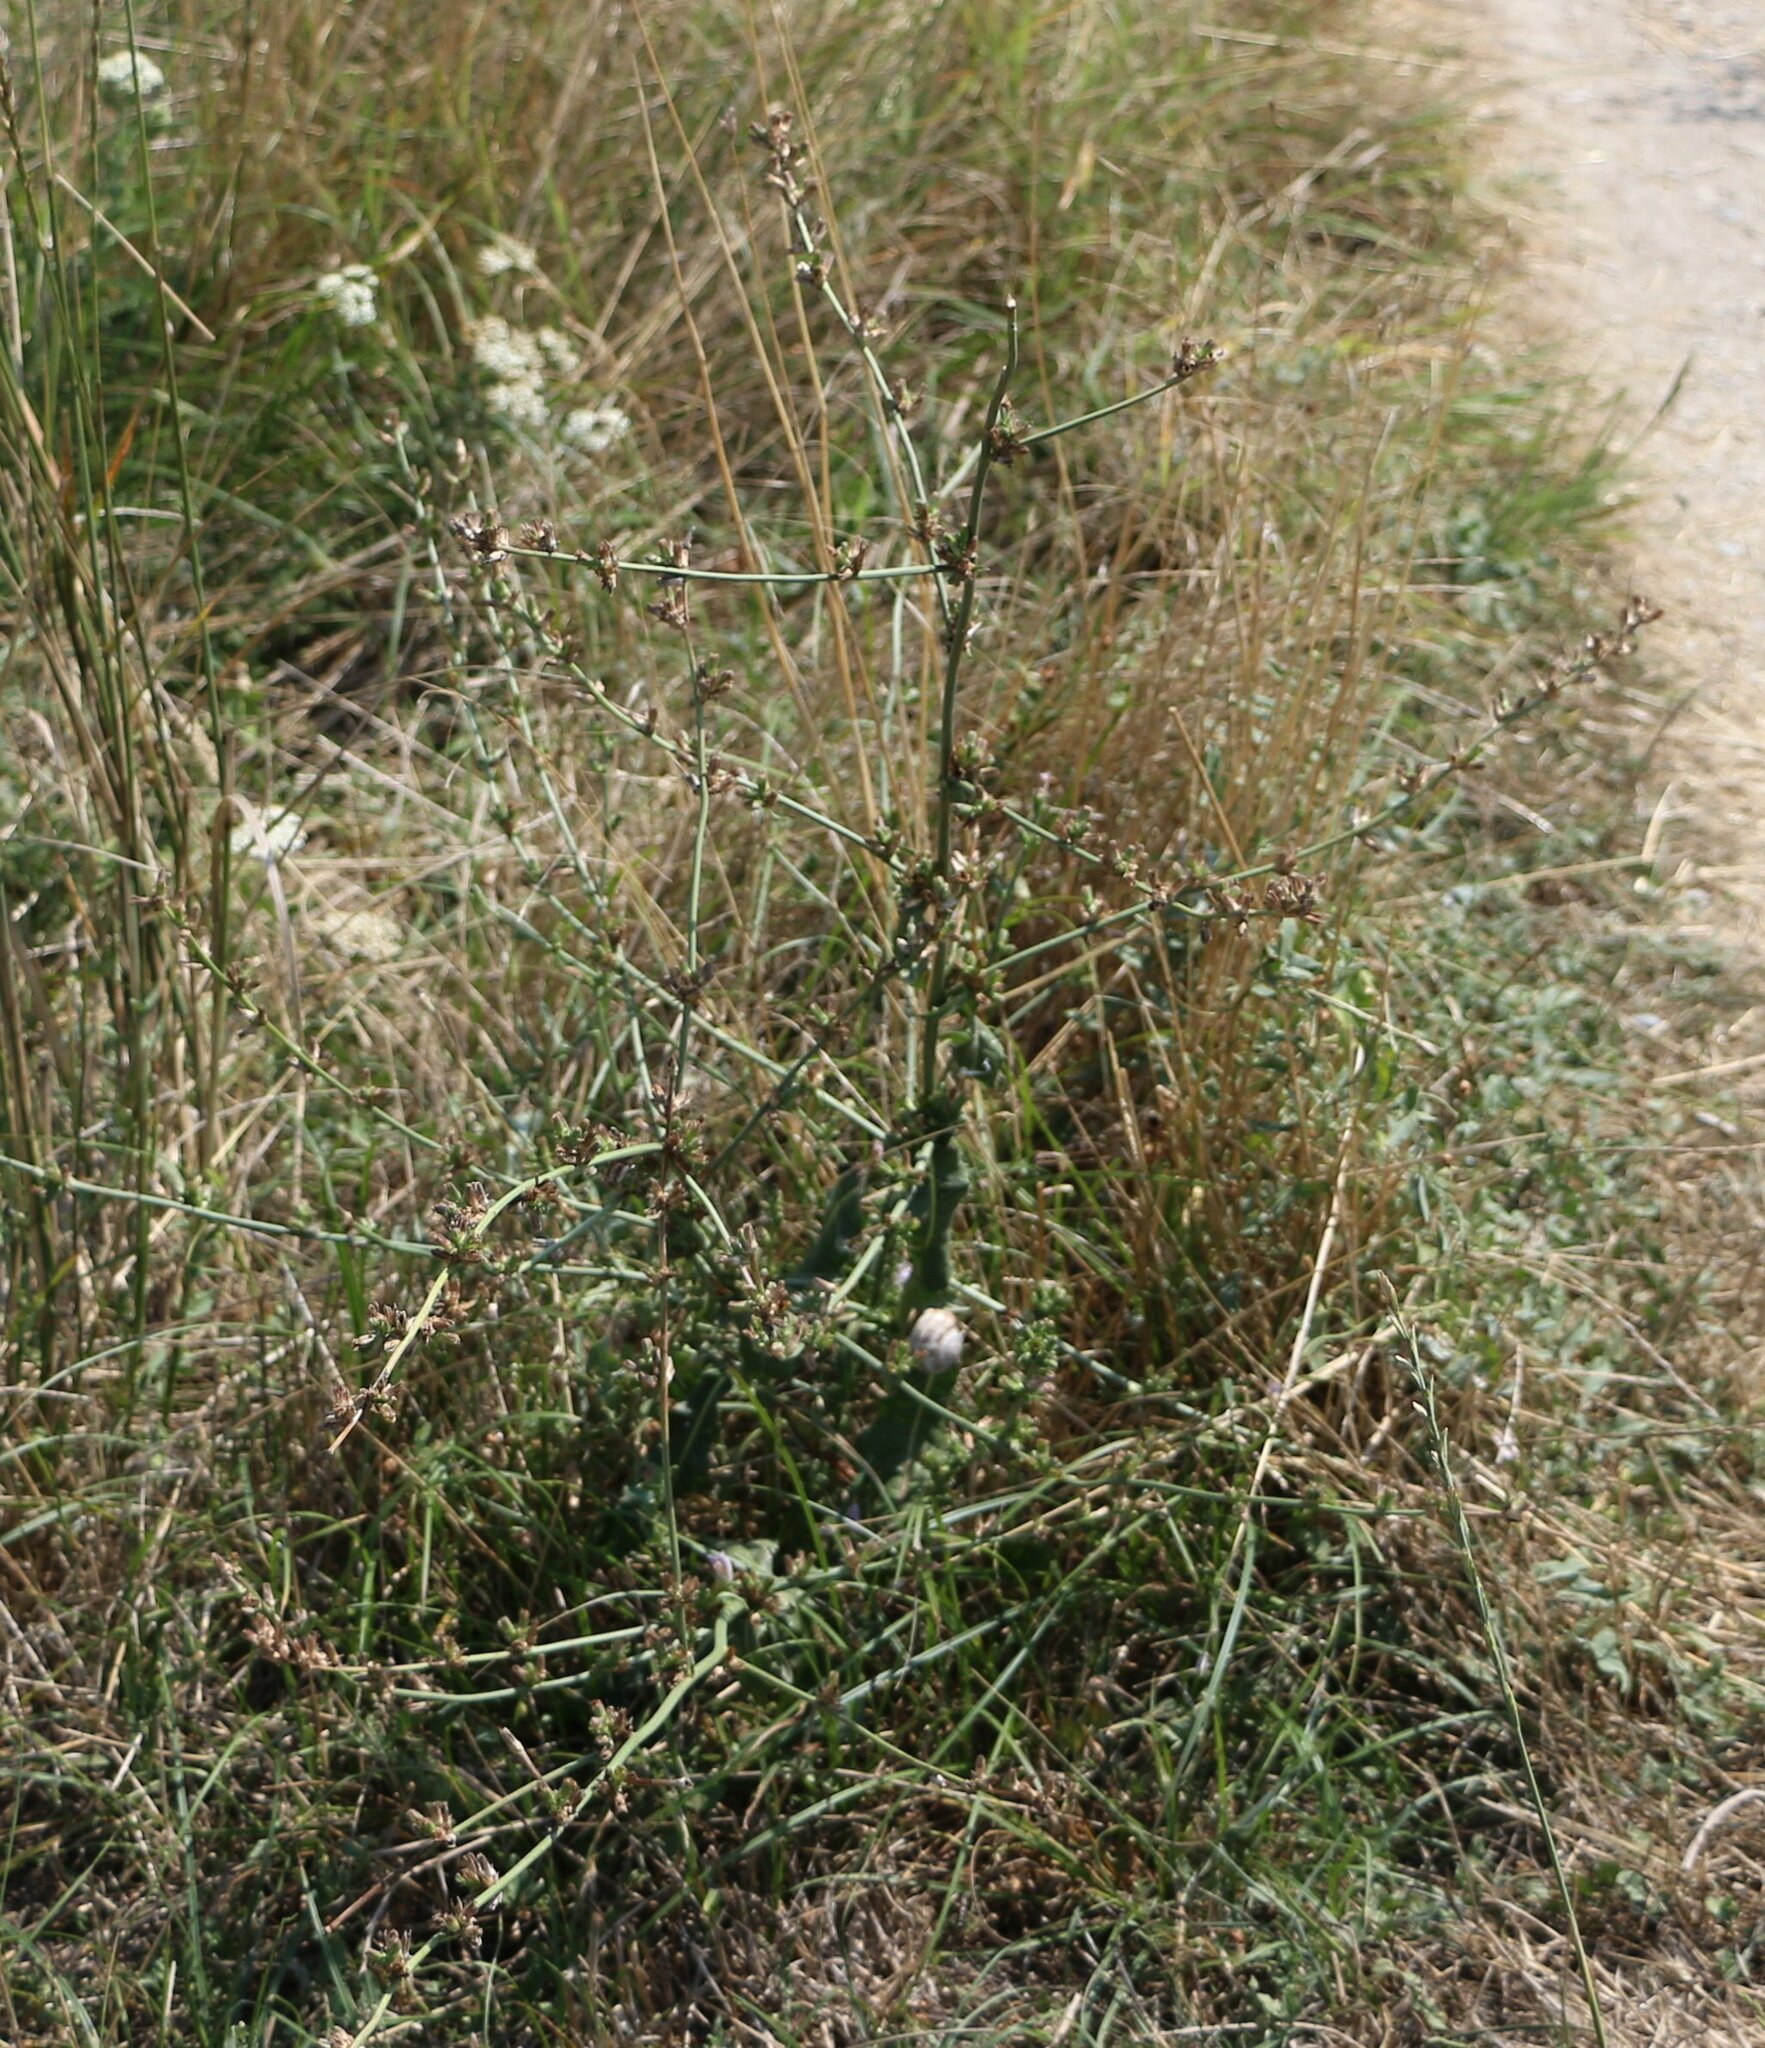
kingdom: Plantae
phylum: Tracheophyta
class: Magnoliopsida
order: Asterales
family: Asteraceae
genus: Cichorium
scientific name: Cichorium intybus
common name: Chicory
